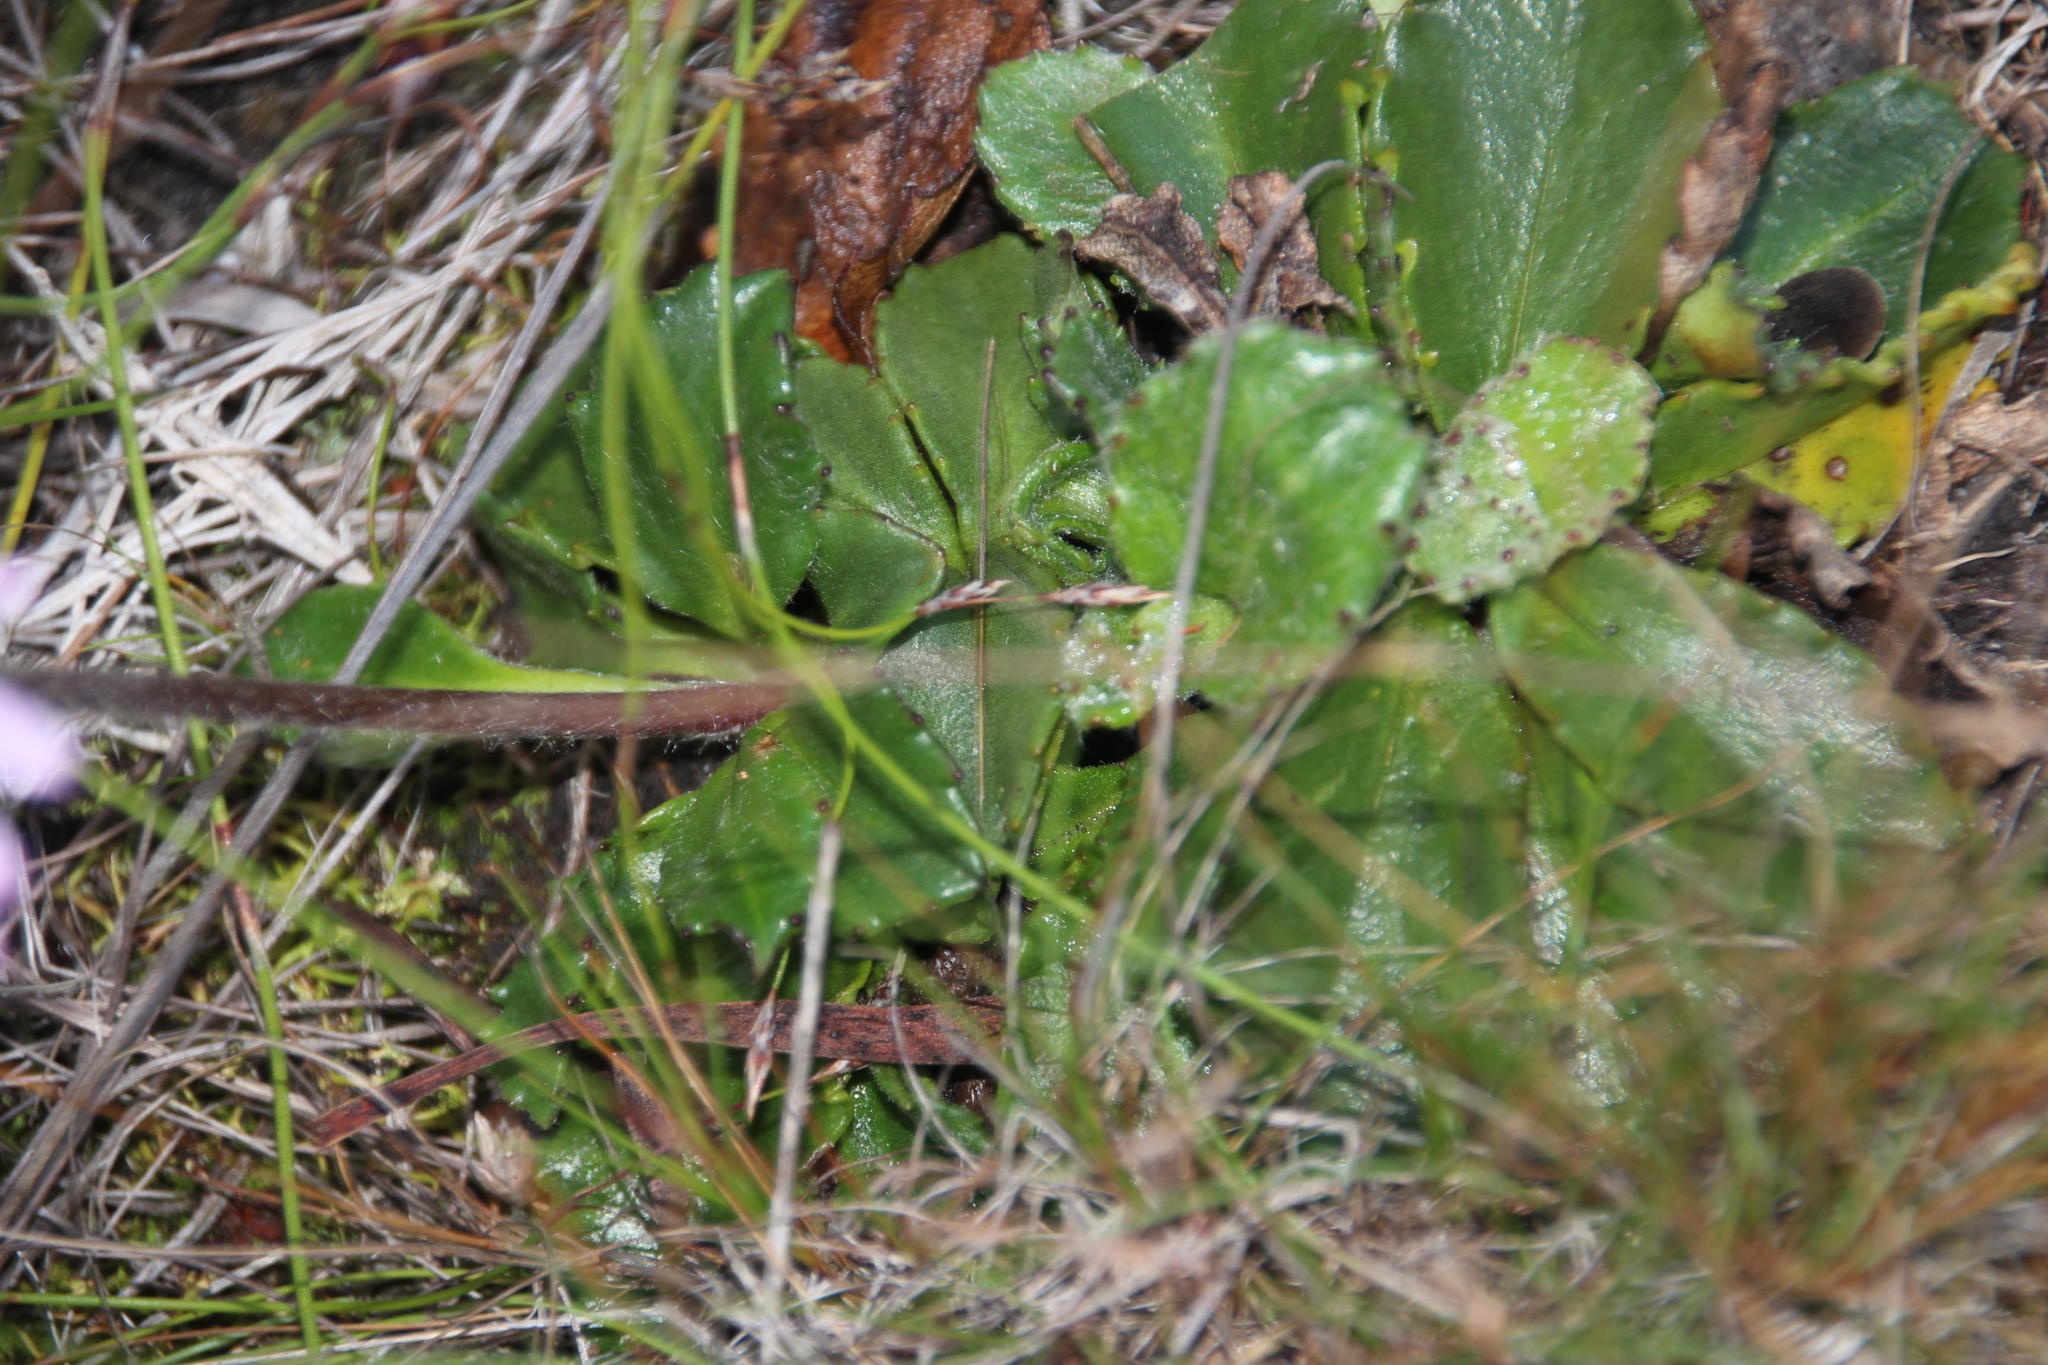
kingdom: Plantae
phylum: Tracheophyta
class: Magnoliopsida
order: Asterales
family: Asteraceae
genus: Zyrphelis
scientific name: Zyrphelis crenata
